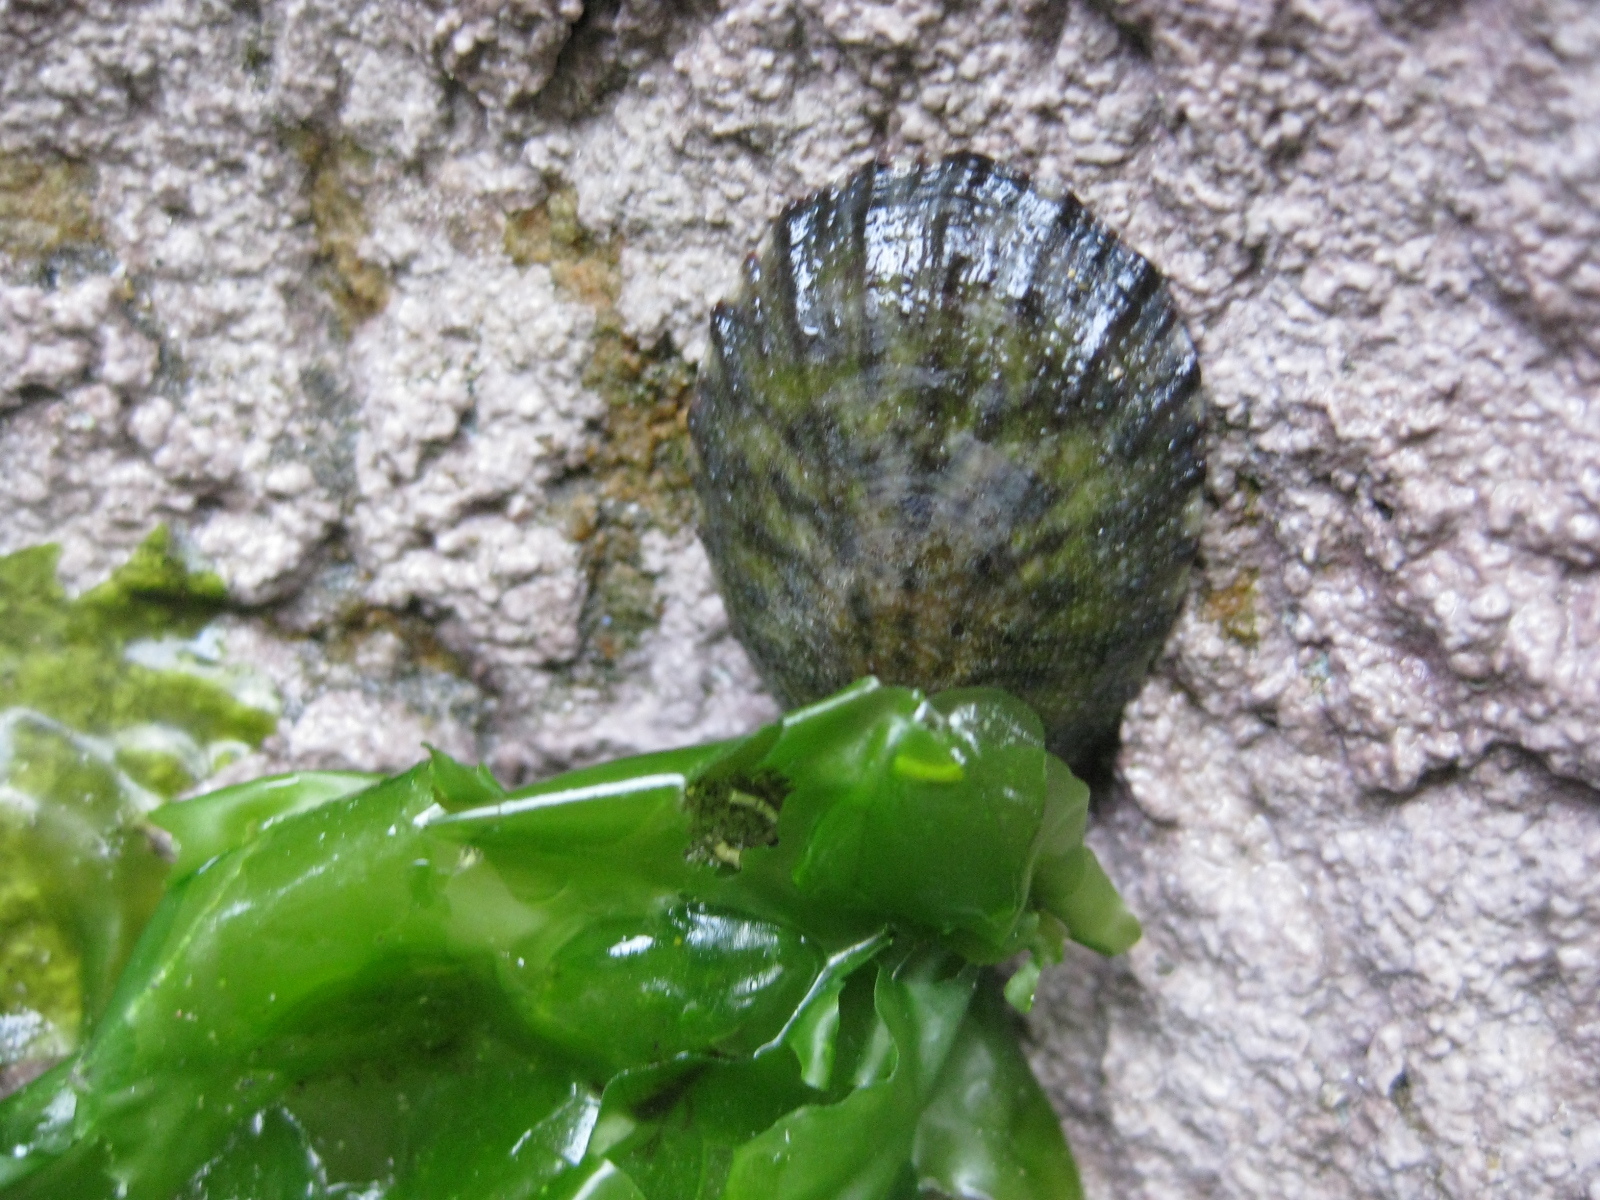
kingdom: Animalia
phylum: Mollusca
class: Gastropoda
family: Nacellidae
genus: Cellana
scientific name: Cellana radians
